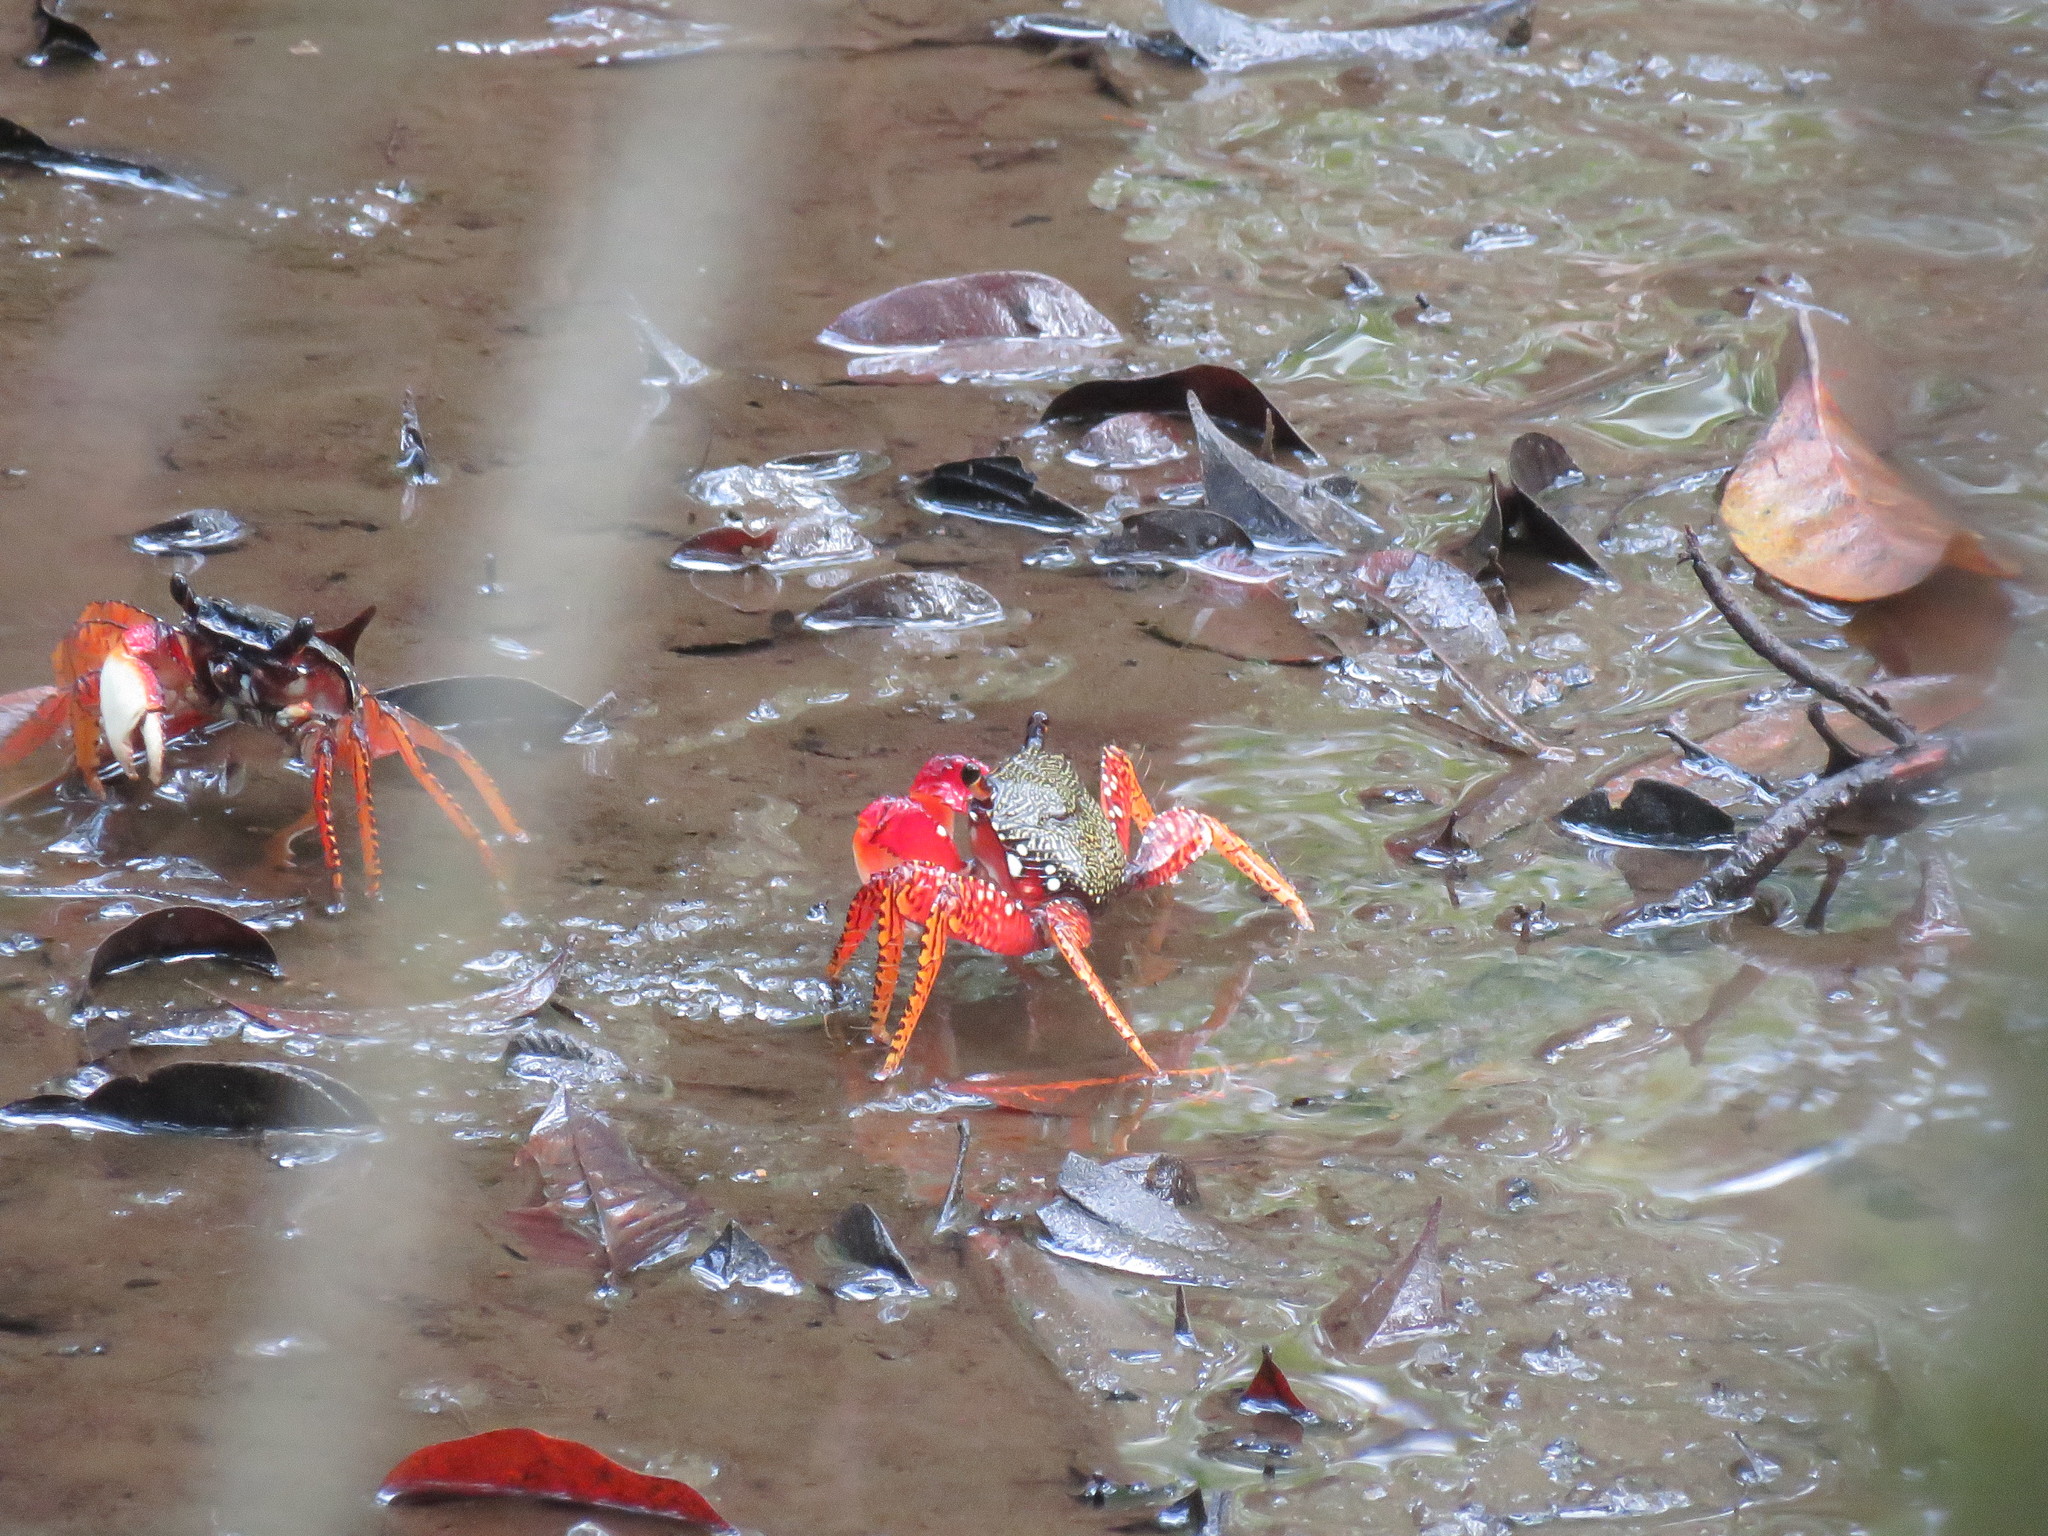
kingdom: Animalia
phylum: Arthropoda
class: Malacostraca
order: Decapoda
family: Grapsidae
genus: Goniopsis
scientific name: Goniopsis pulchra
